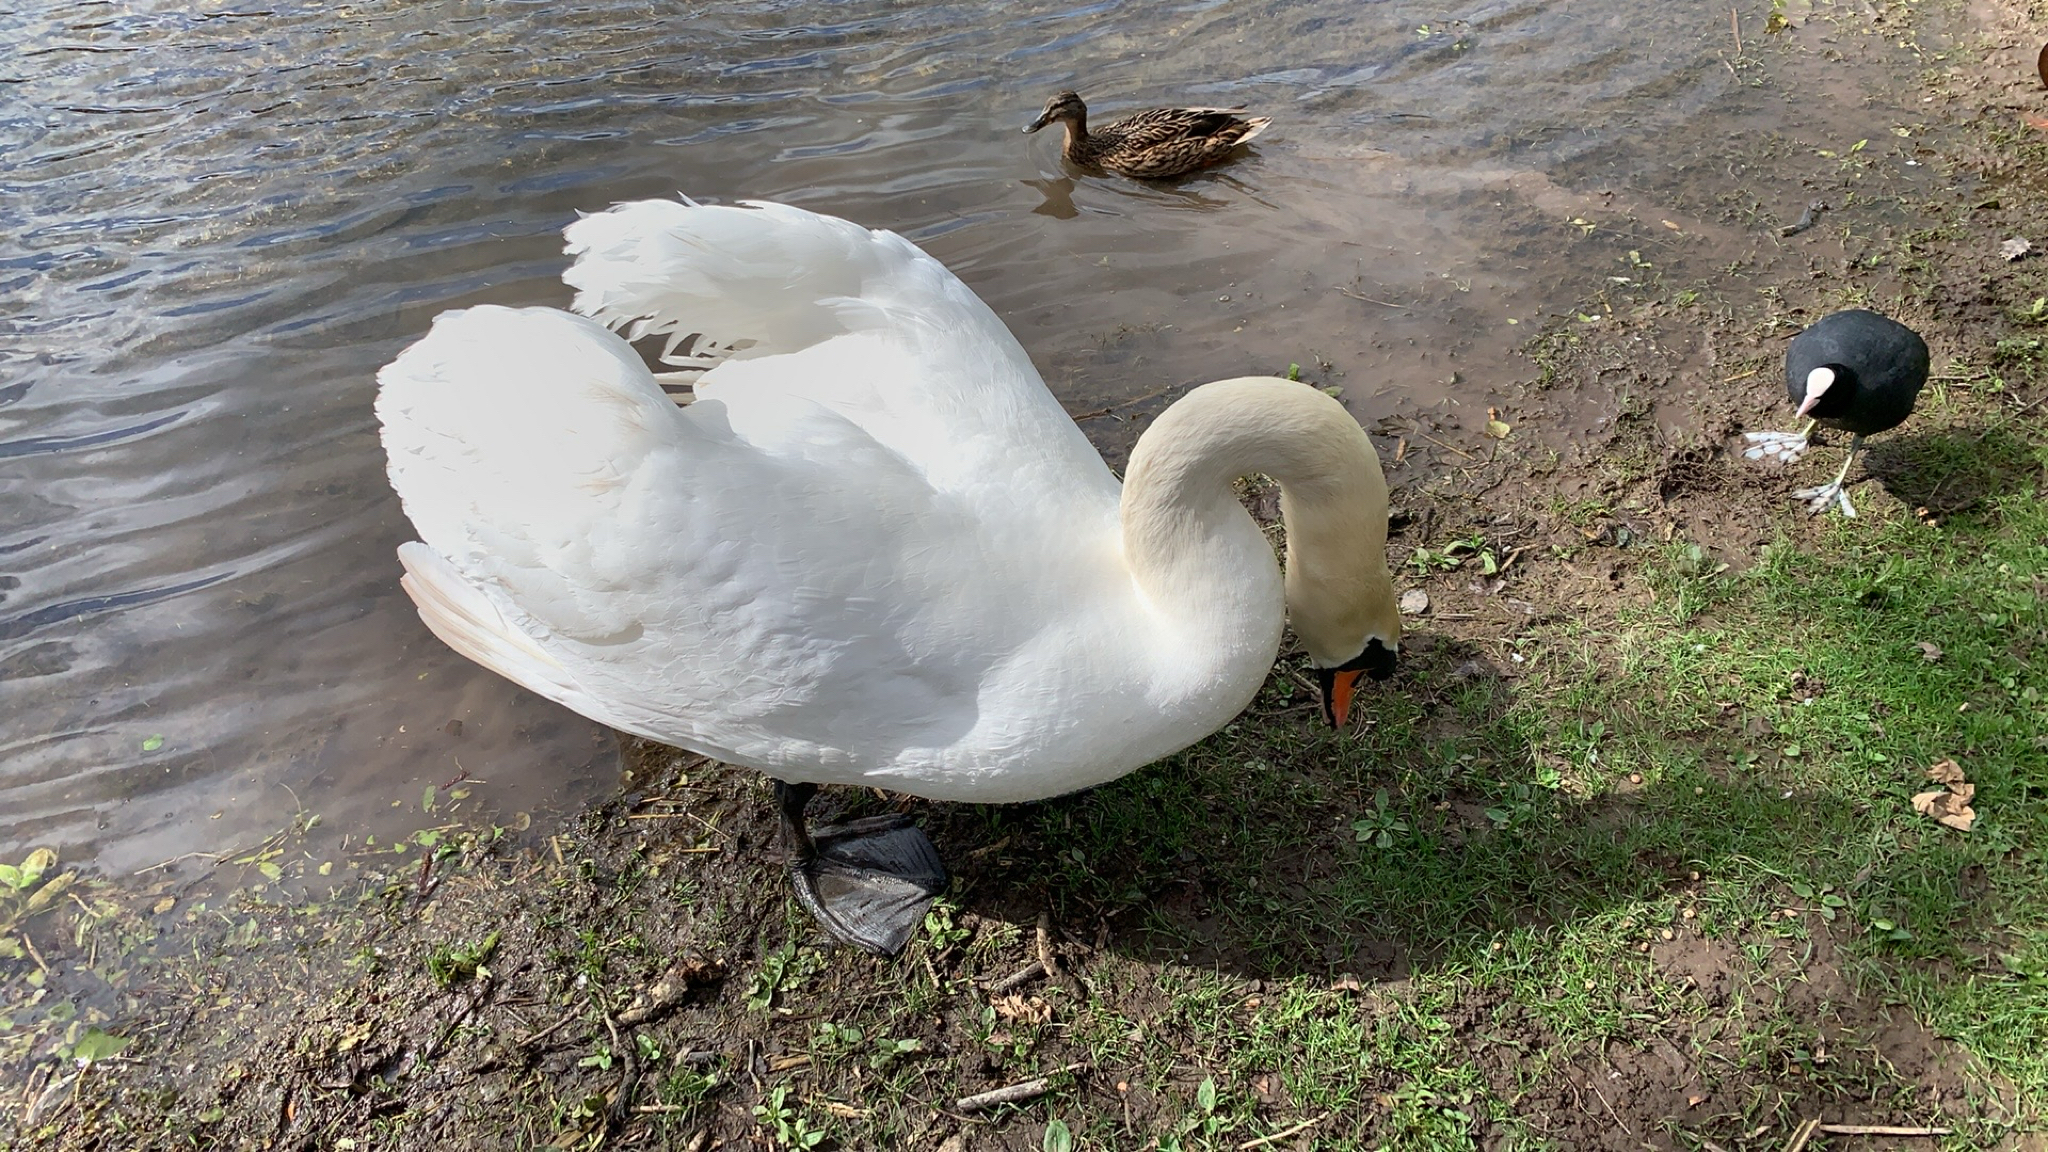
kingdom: Animalia
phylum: Chordata
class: Aves
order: Anseriformes
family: Anatidae
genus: Cygnus
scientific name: Cygnus olor
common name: Mute swan
